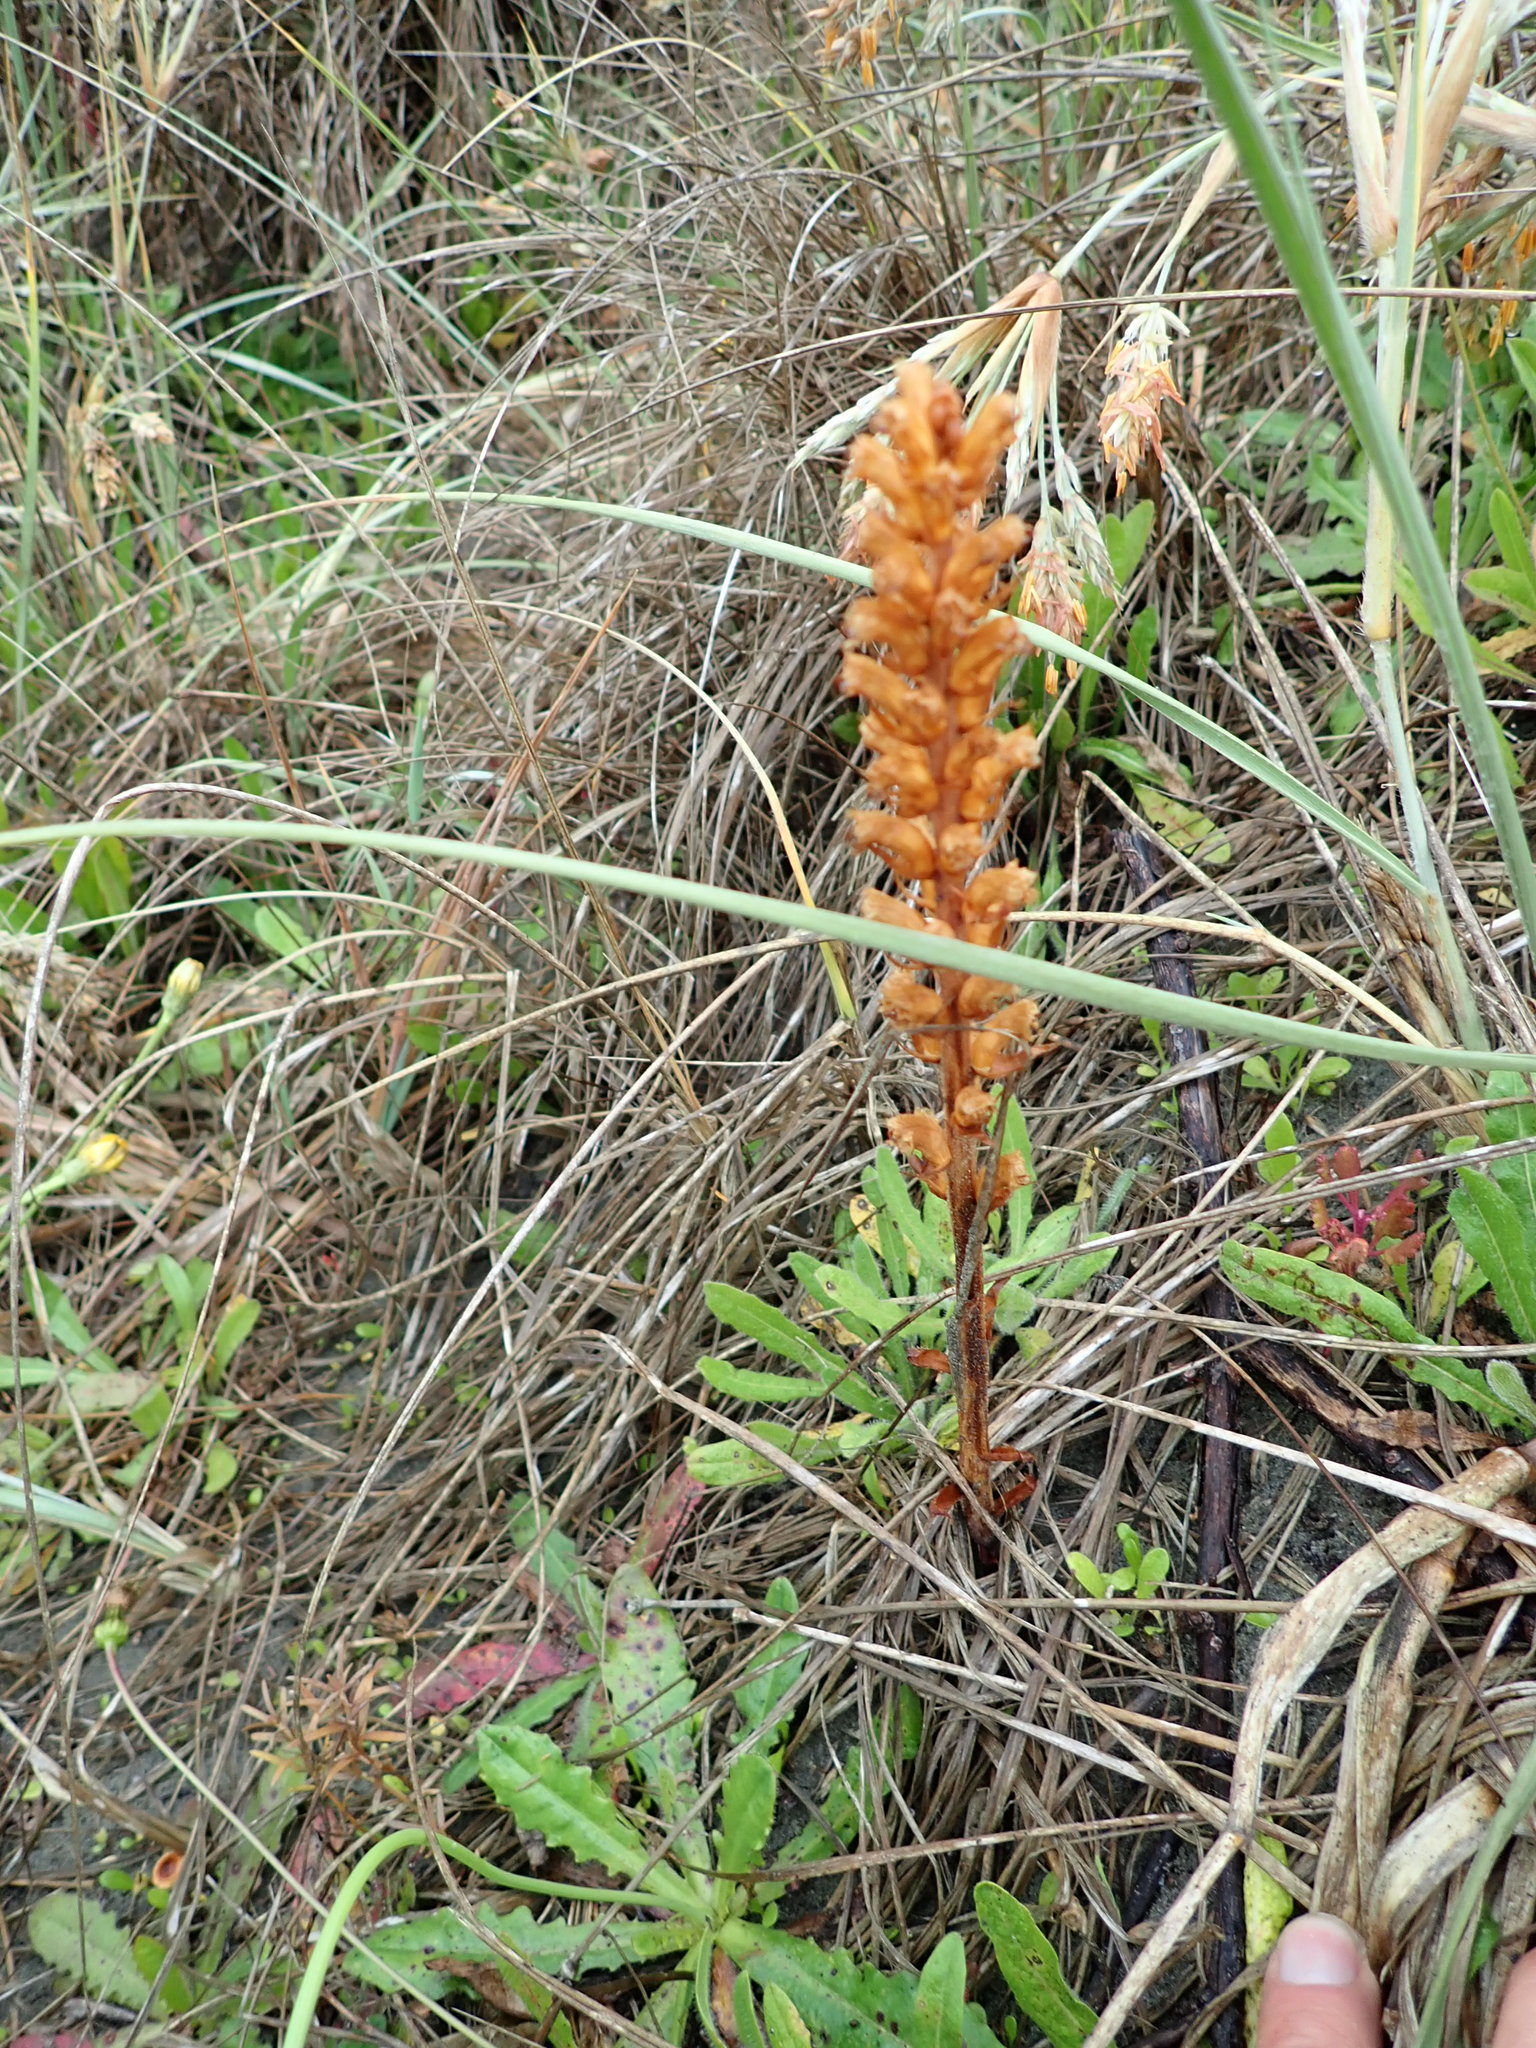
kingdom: Plantae
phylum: Tracheophyta
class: Magnoliopsida
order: Lamiales
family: Orobanchaceae
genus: Orobanche
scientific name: Orobanche minor
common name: Common broomrape
